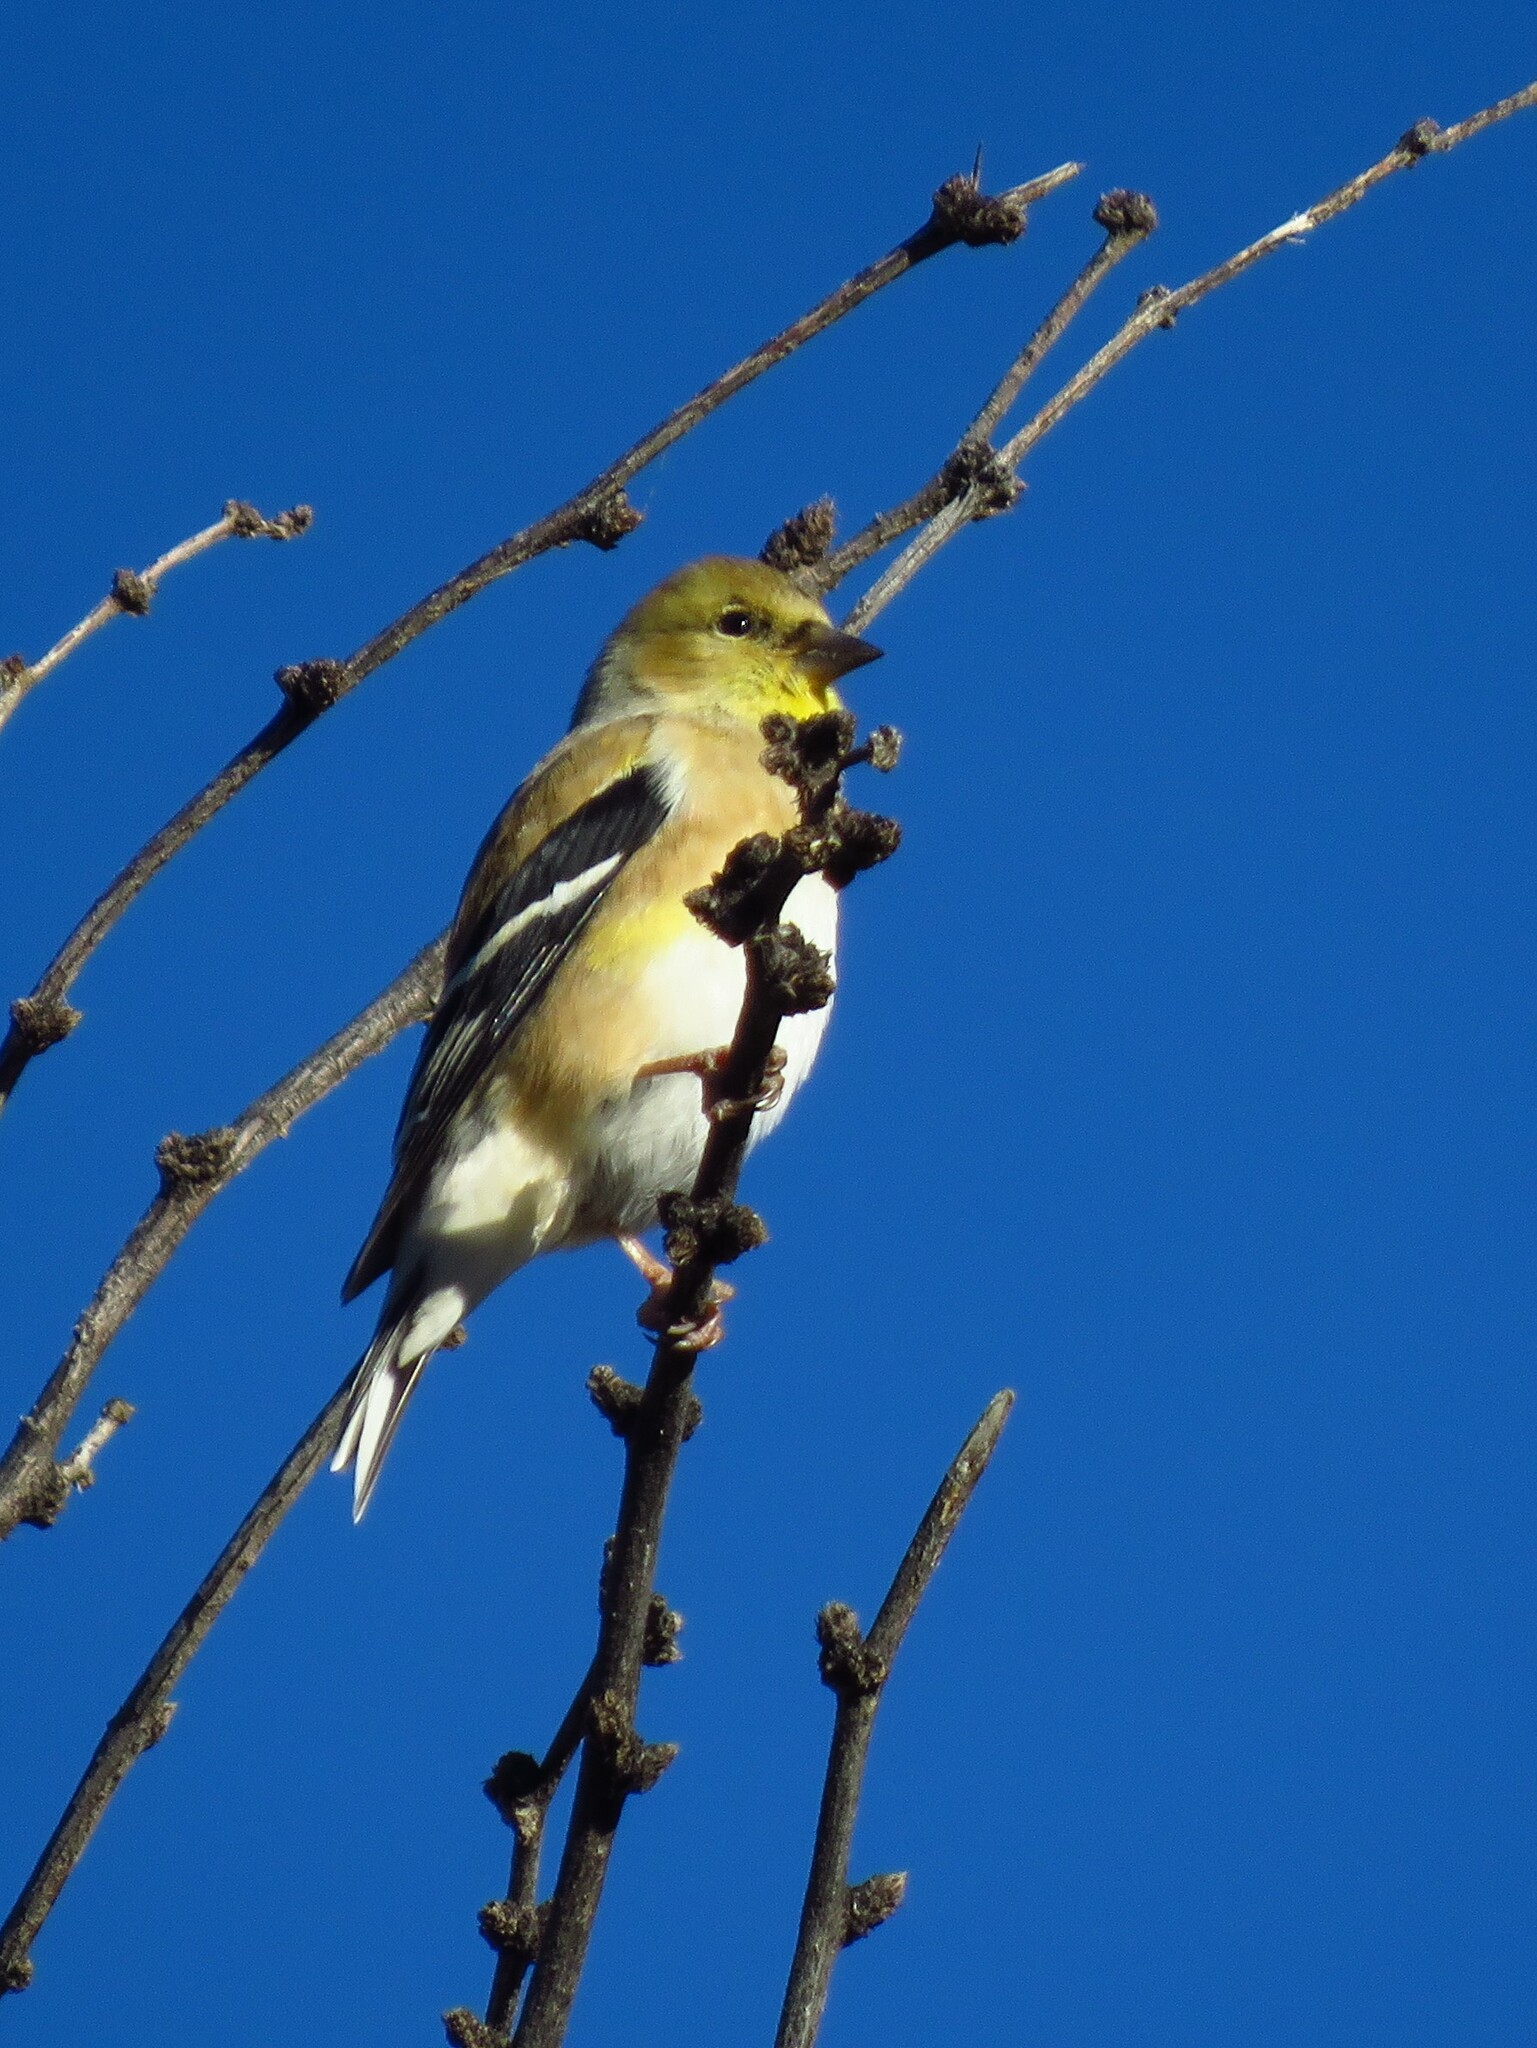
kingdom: Animalia
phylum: Chordata
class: Aves
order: Passeriformes
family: Fringillidae
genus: Spinus
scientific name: Spinus tristis
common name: American goldfinch
